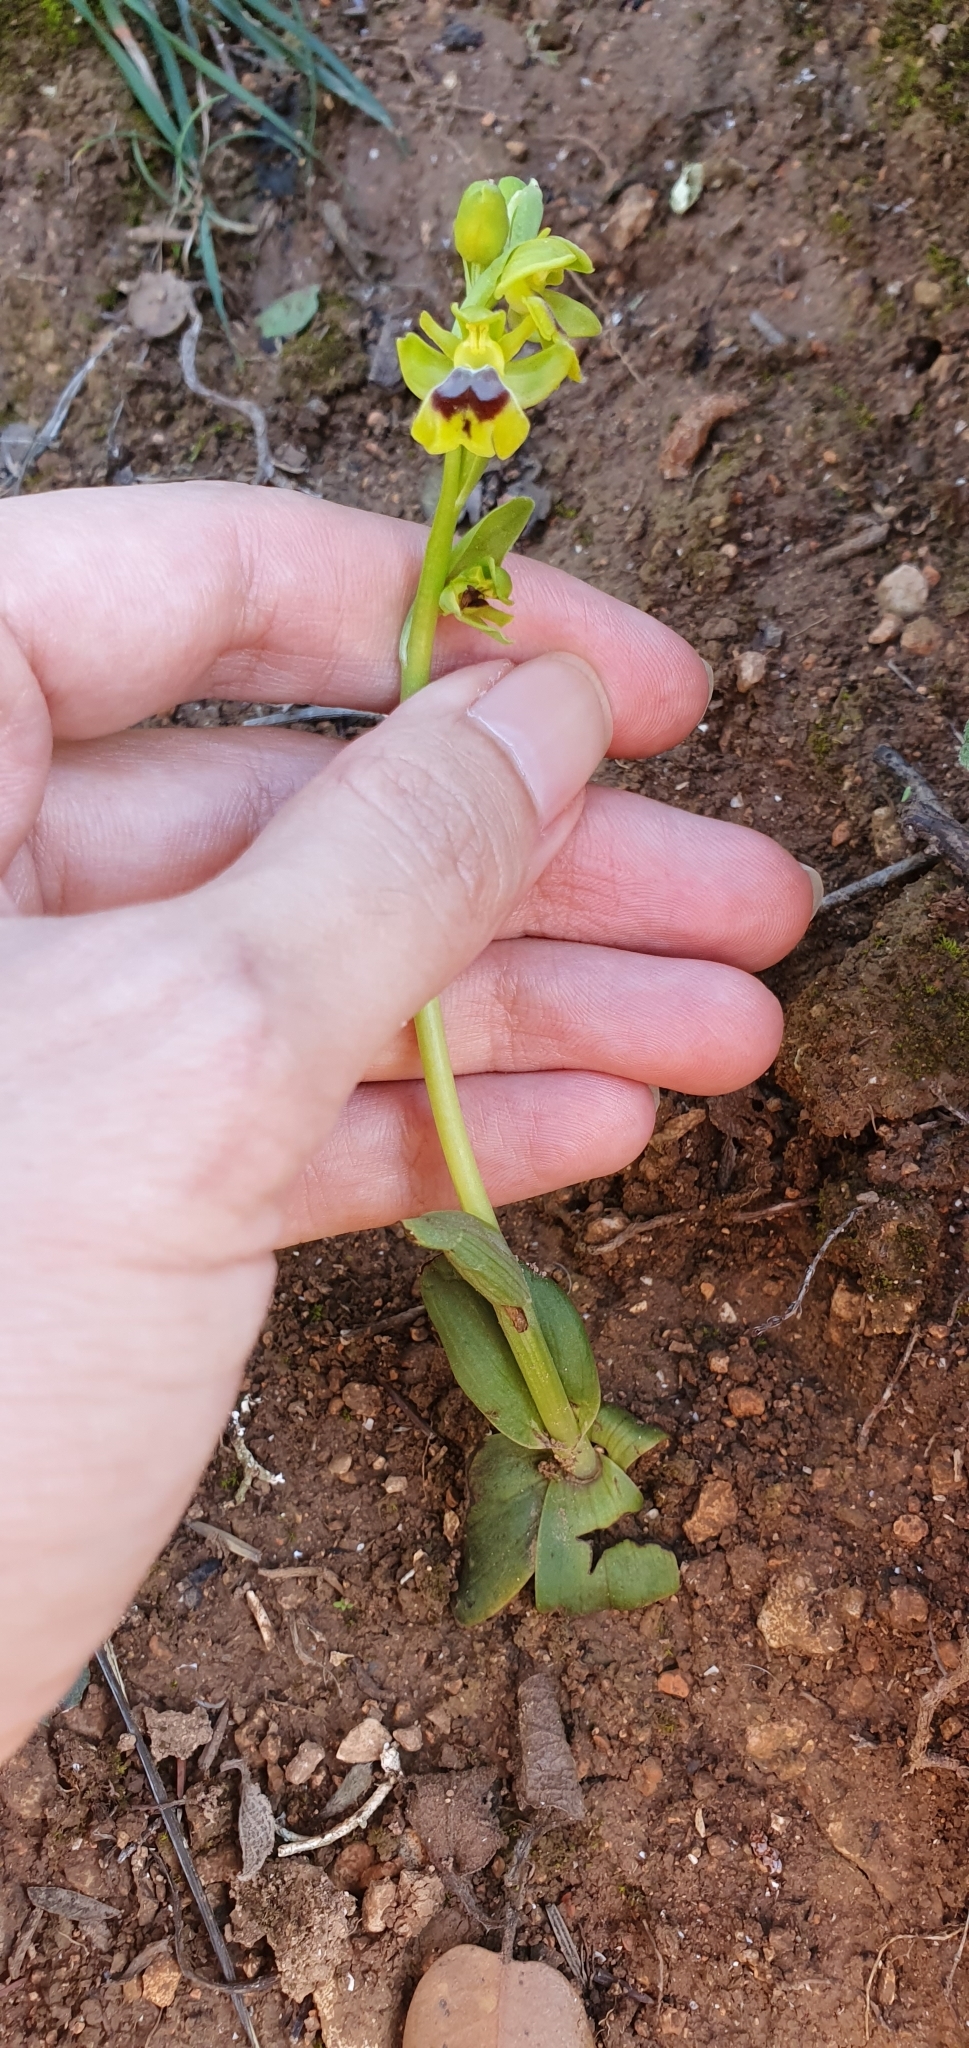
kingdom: Plantae
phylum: Tracheophyta
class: Liliopsida
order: Asparagales
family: Orchidaceae
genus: Ophrys
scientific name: Ophrys battandieri
